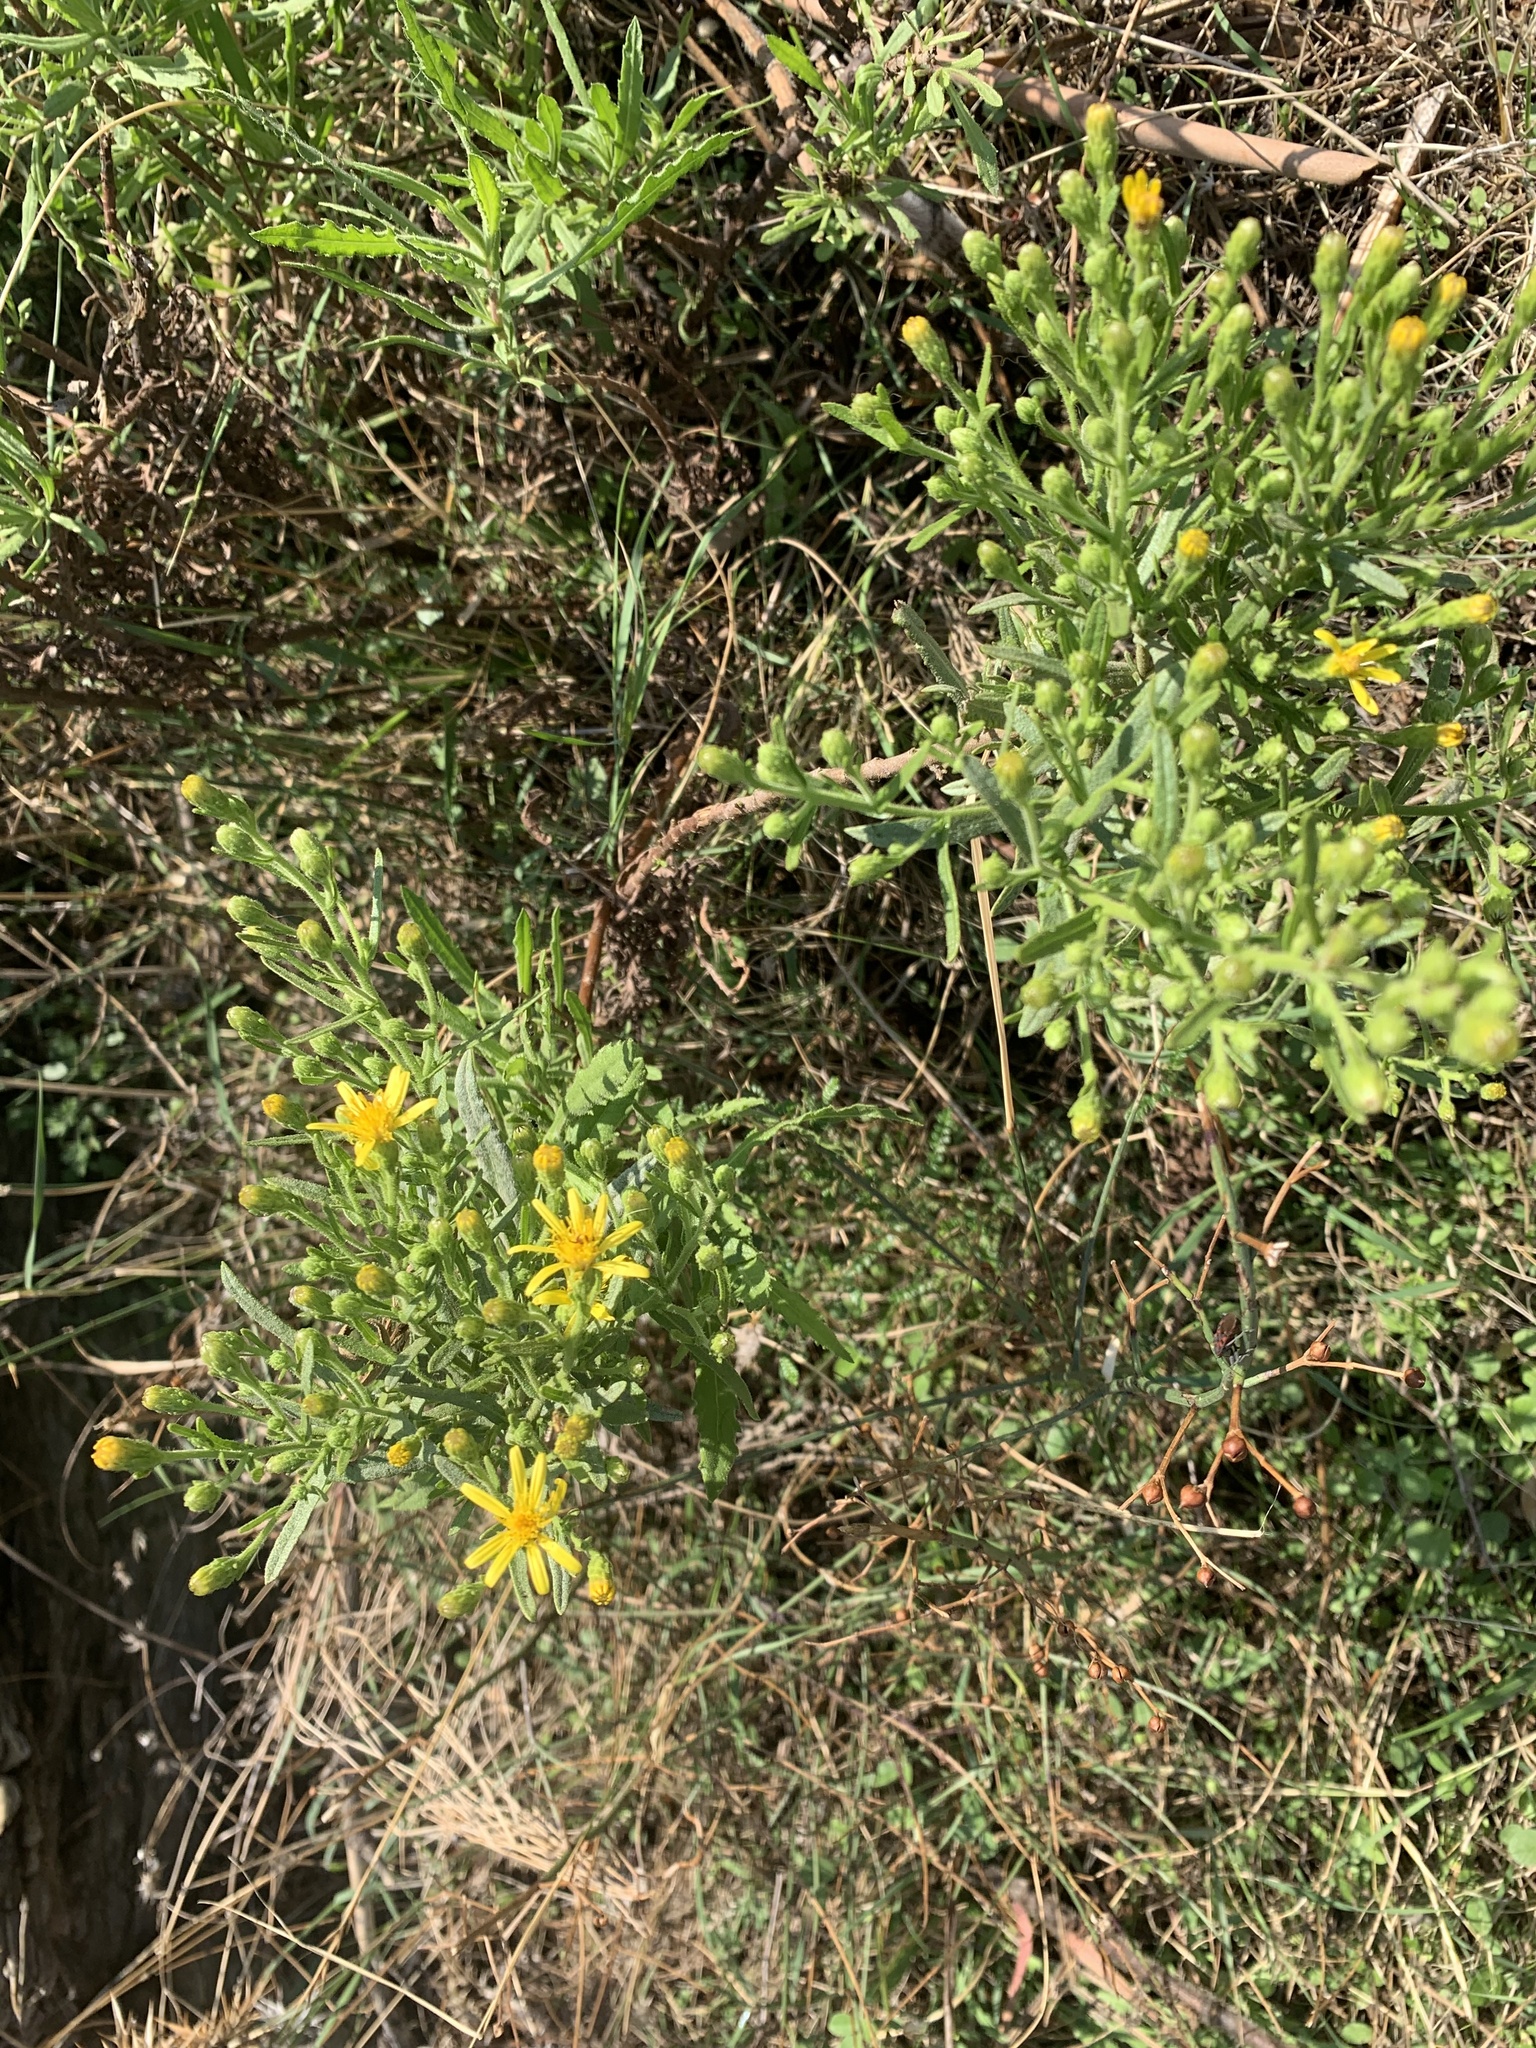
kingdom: Plantae
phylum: Tracheophyta
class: Magnoliopsida
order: Asterales
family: Asteraceae
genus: Dittrichia
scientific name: Dittrichia viscosa
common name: Woody fleabane
